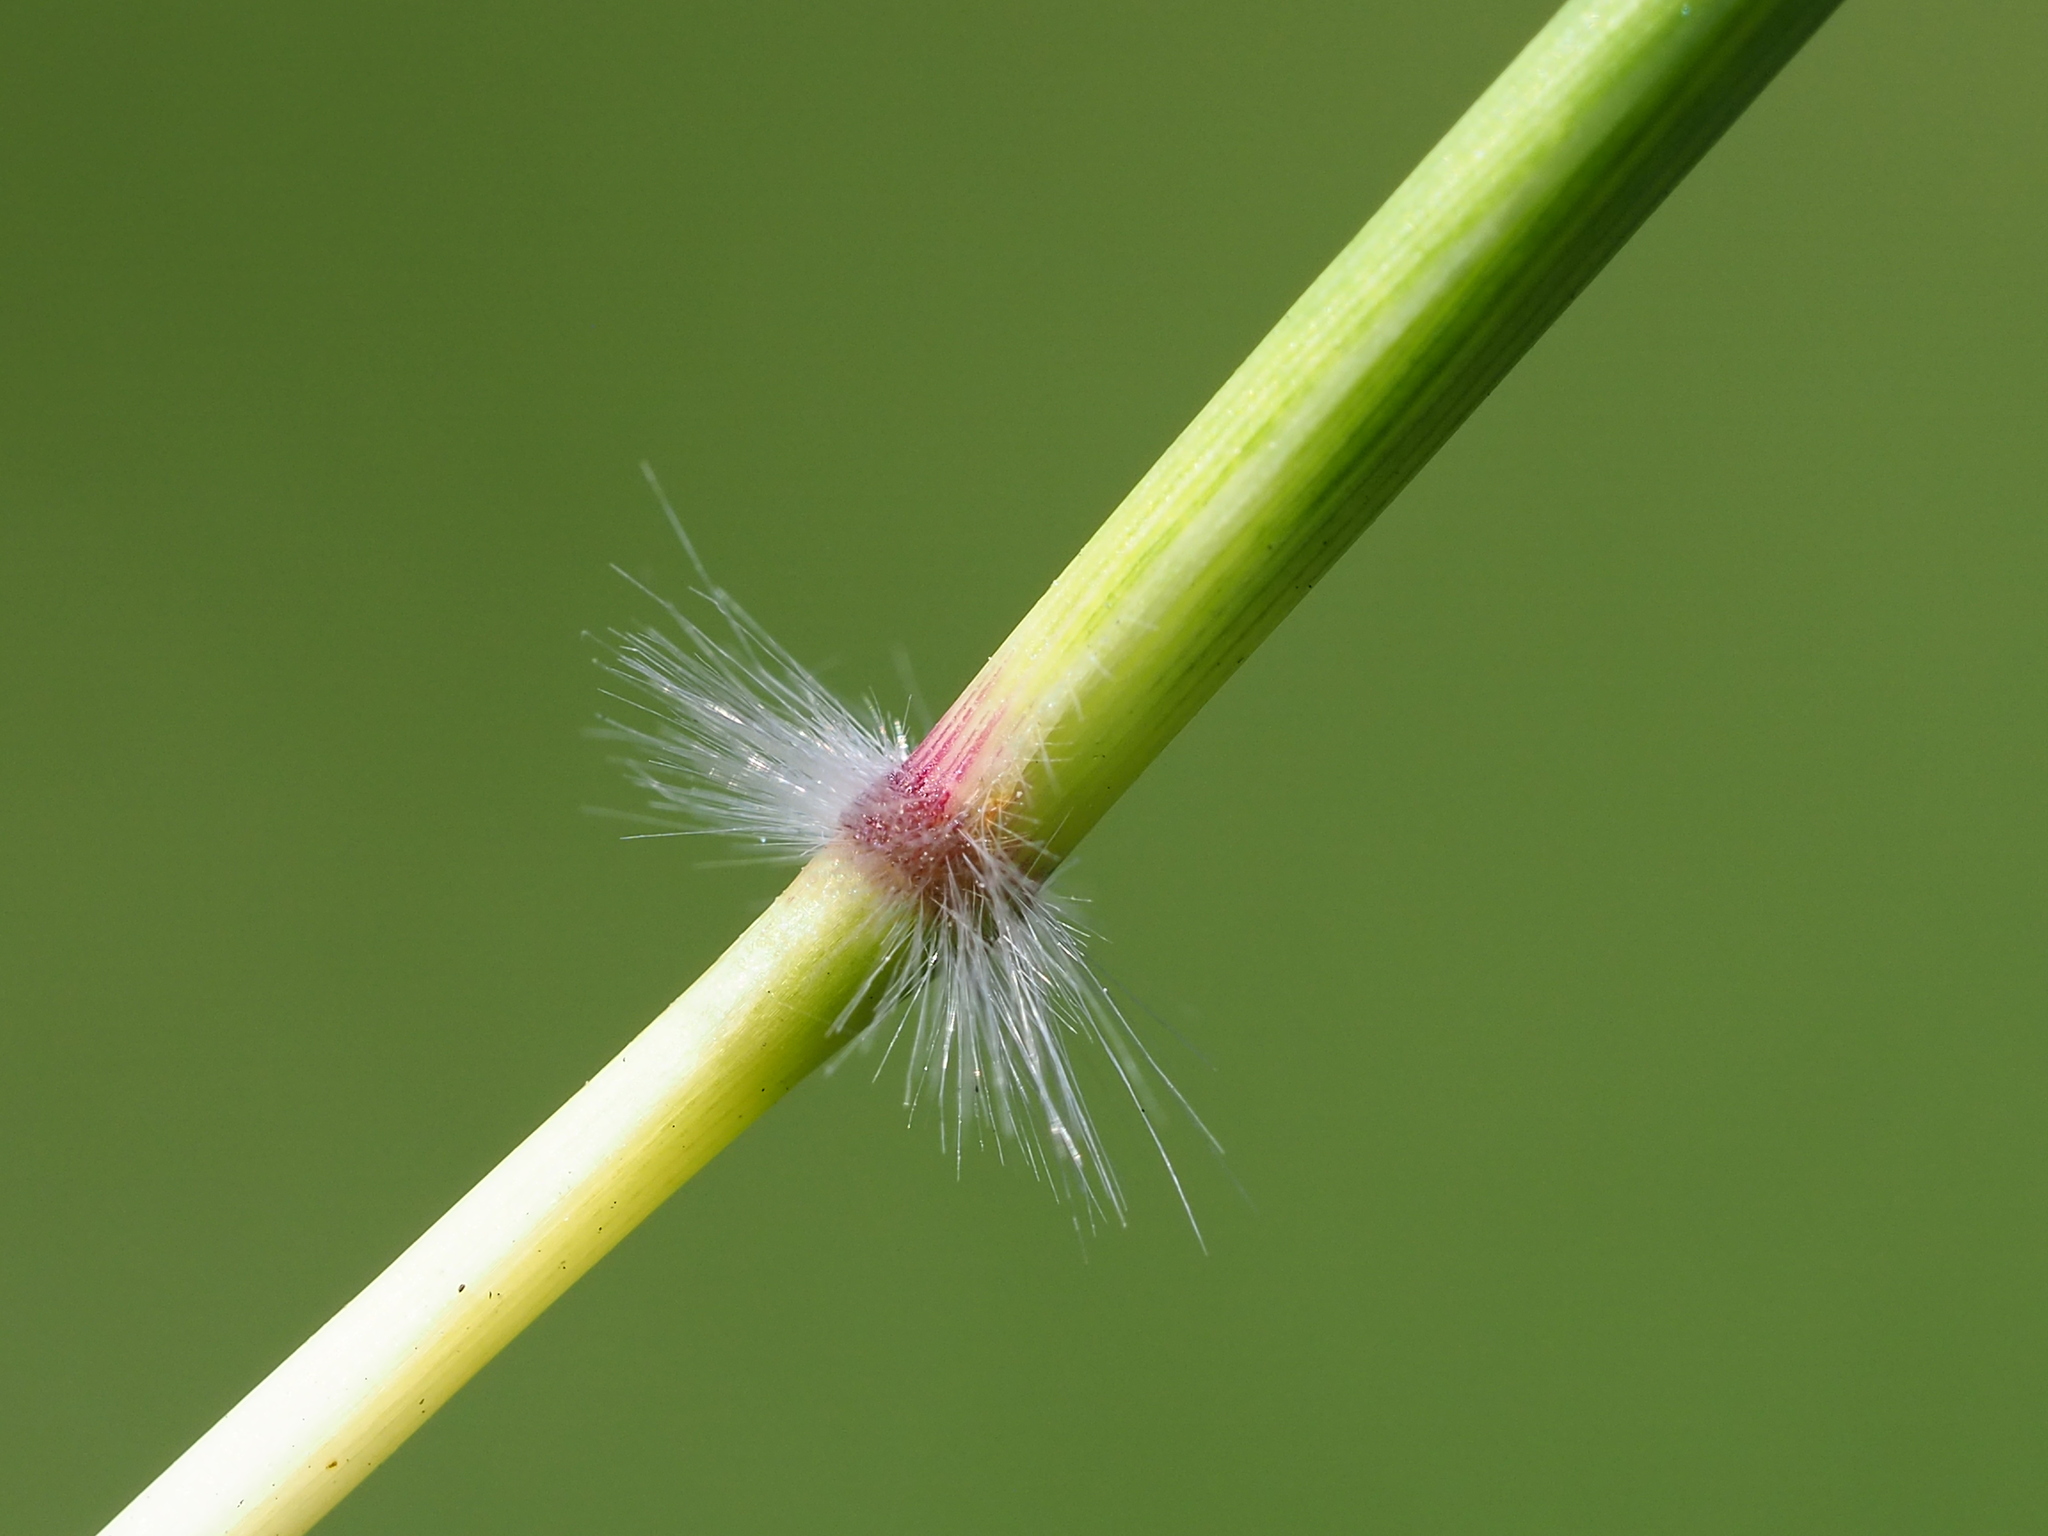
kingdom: Plantae
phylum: Tracheophyta
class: Liliopsida
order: Poales
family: Poaceae
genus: Dichanthium
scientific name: Dichanthium annulatum
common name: Kleberg's bluestem
